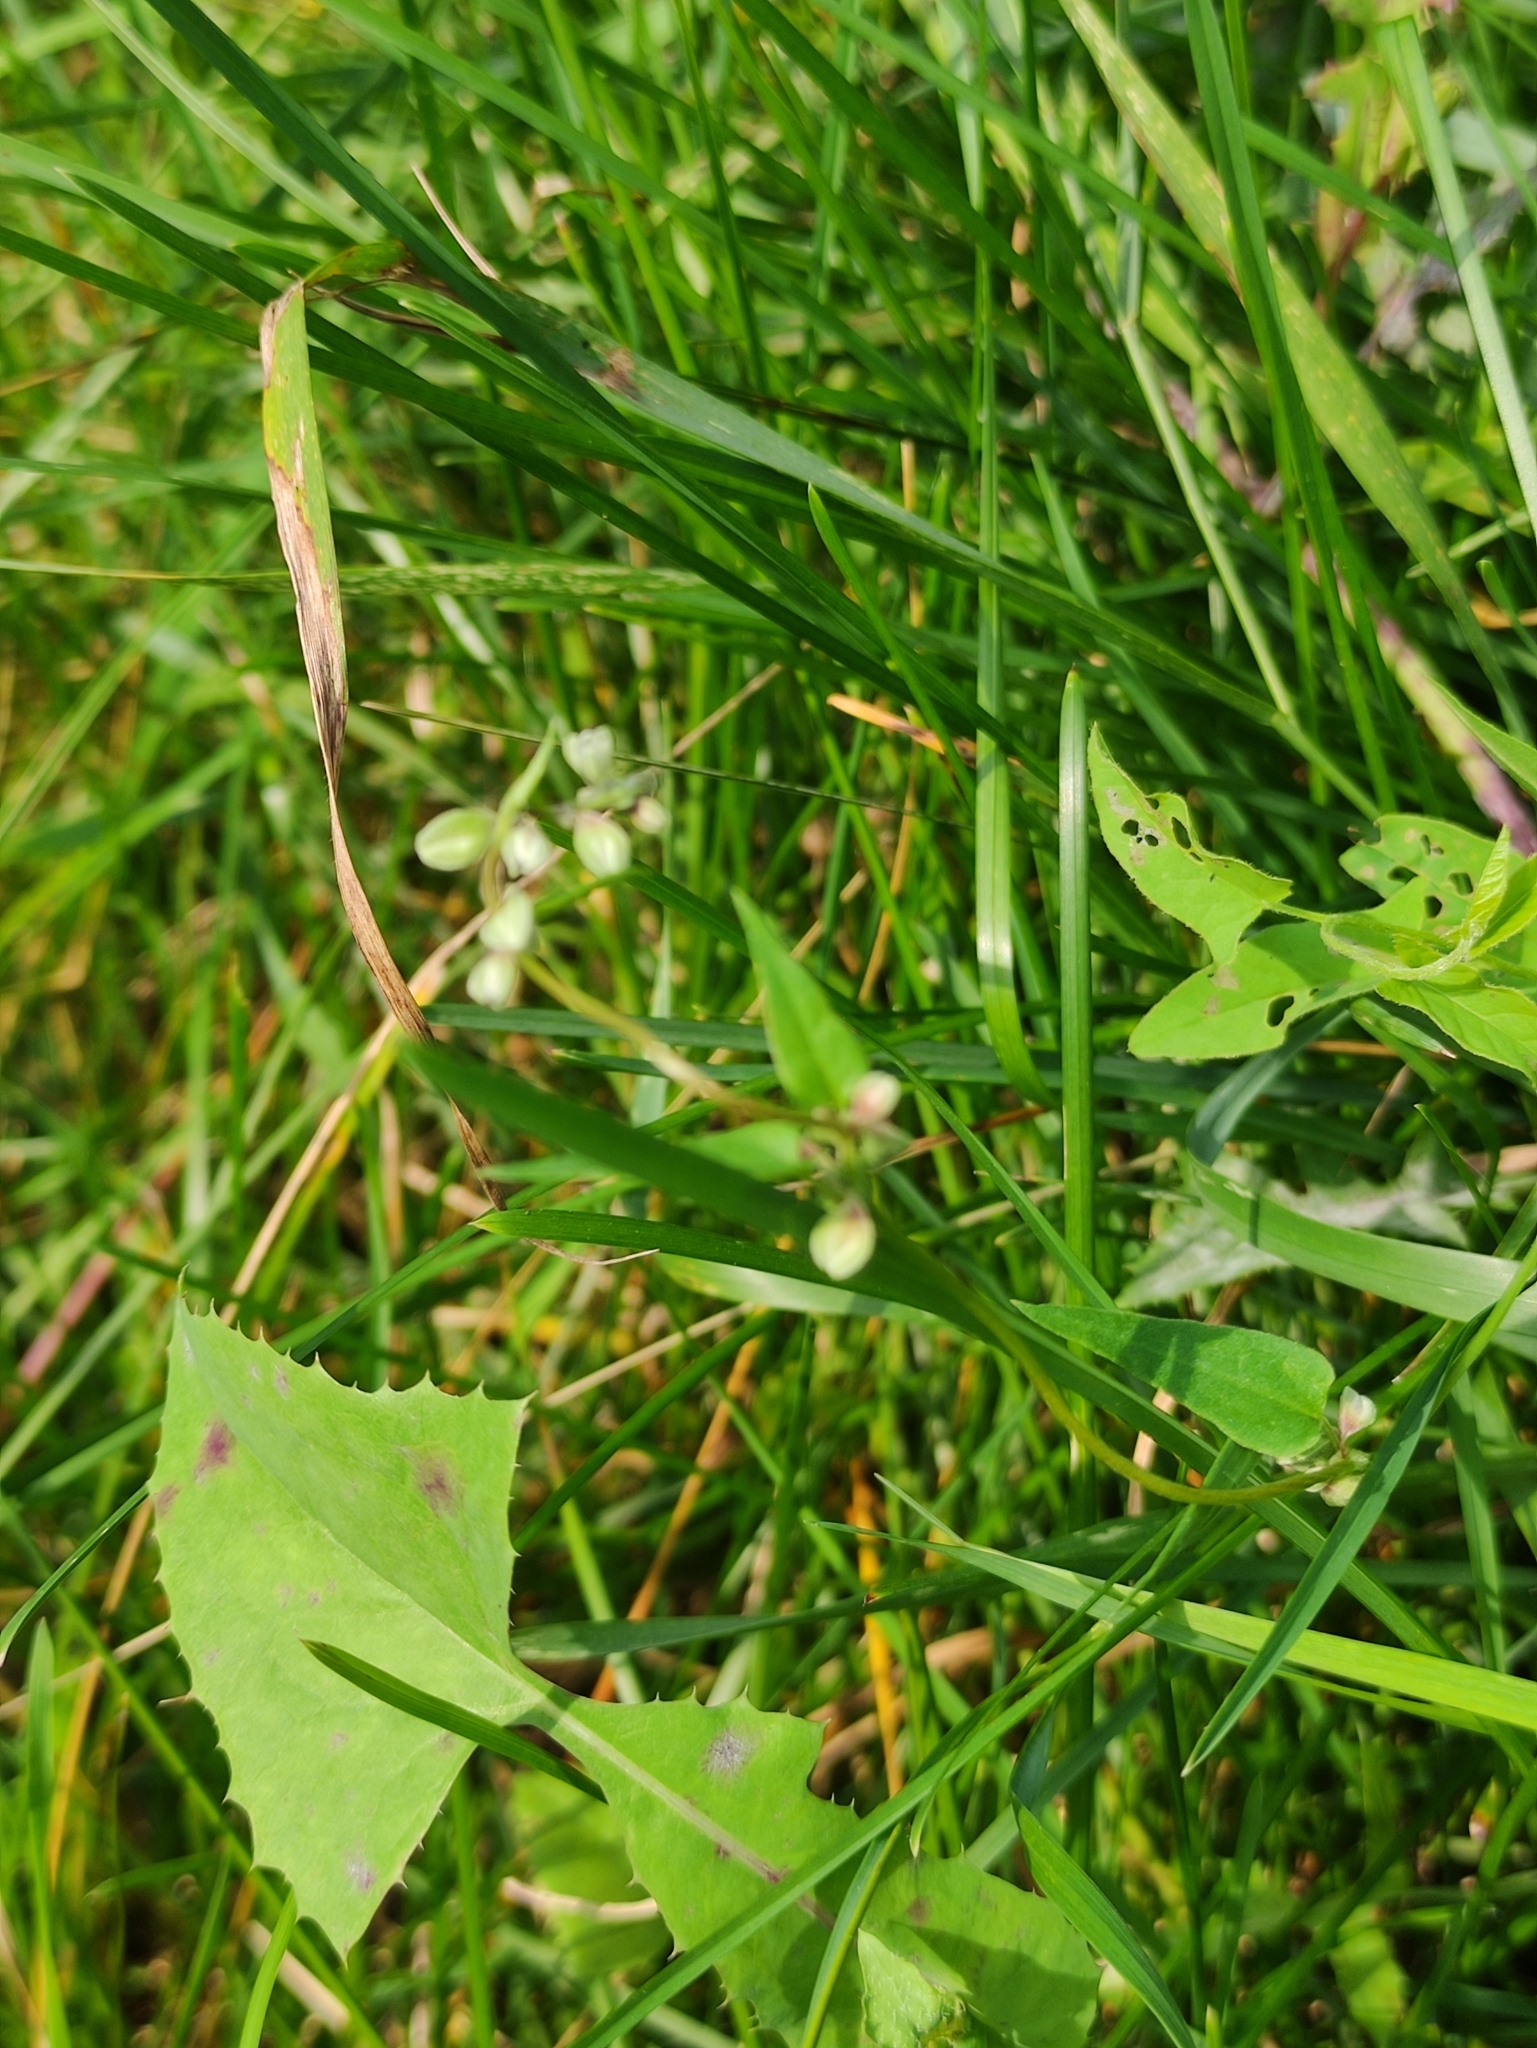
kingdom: Plantae
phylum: Tracheophyta
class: Magnoliopsida
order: Caryophyllales
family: Polygonaceae
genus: Fallopia
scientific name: Fallopia convolvulus
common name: Black bindweed
